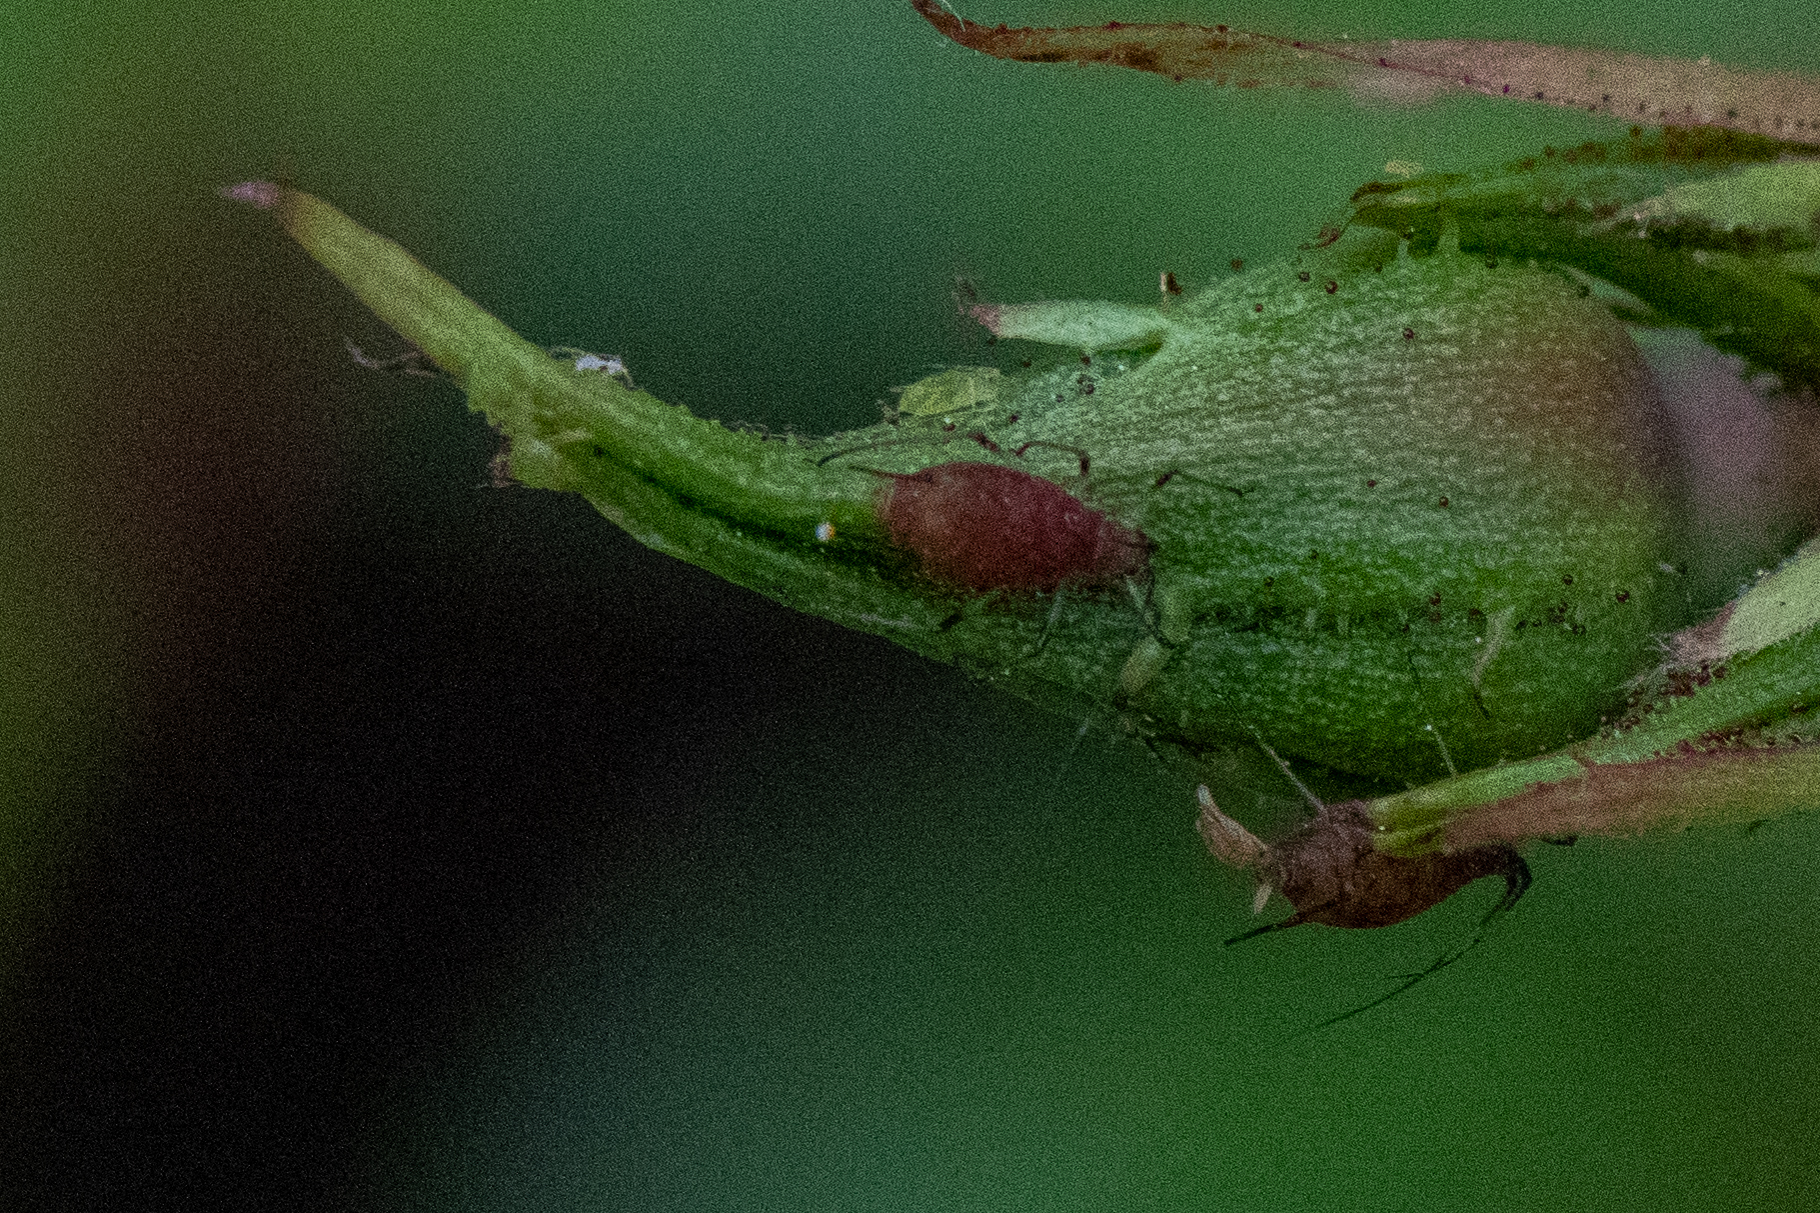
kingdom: Animalia
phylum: Arthropoda
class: Insecta
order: Hemiptera
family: Aphididae
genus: Macrosiphum
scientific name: Macrosiphum rosae
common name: Rose aphid
